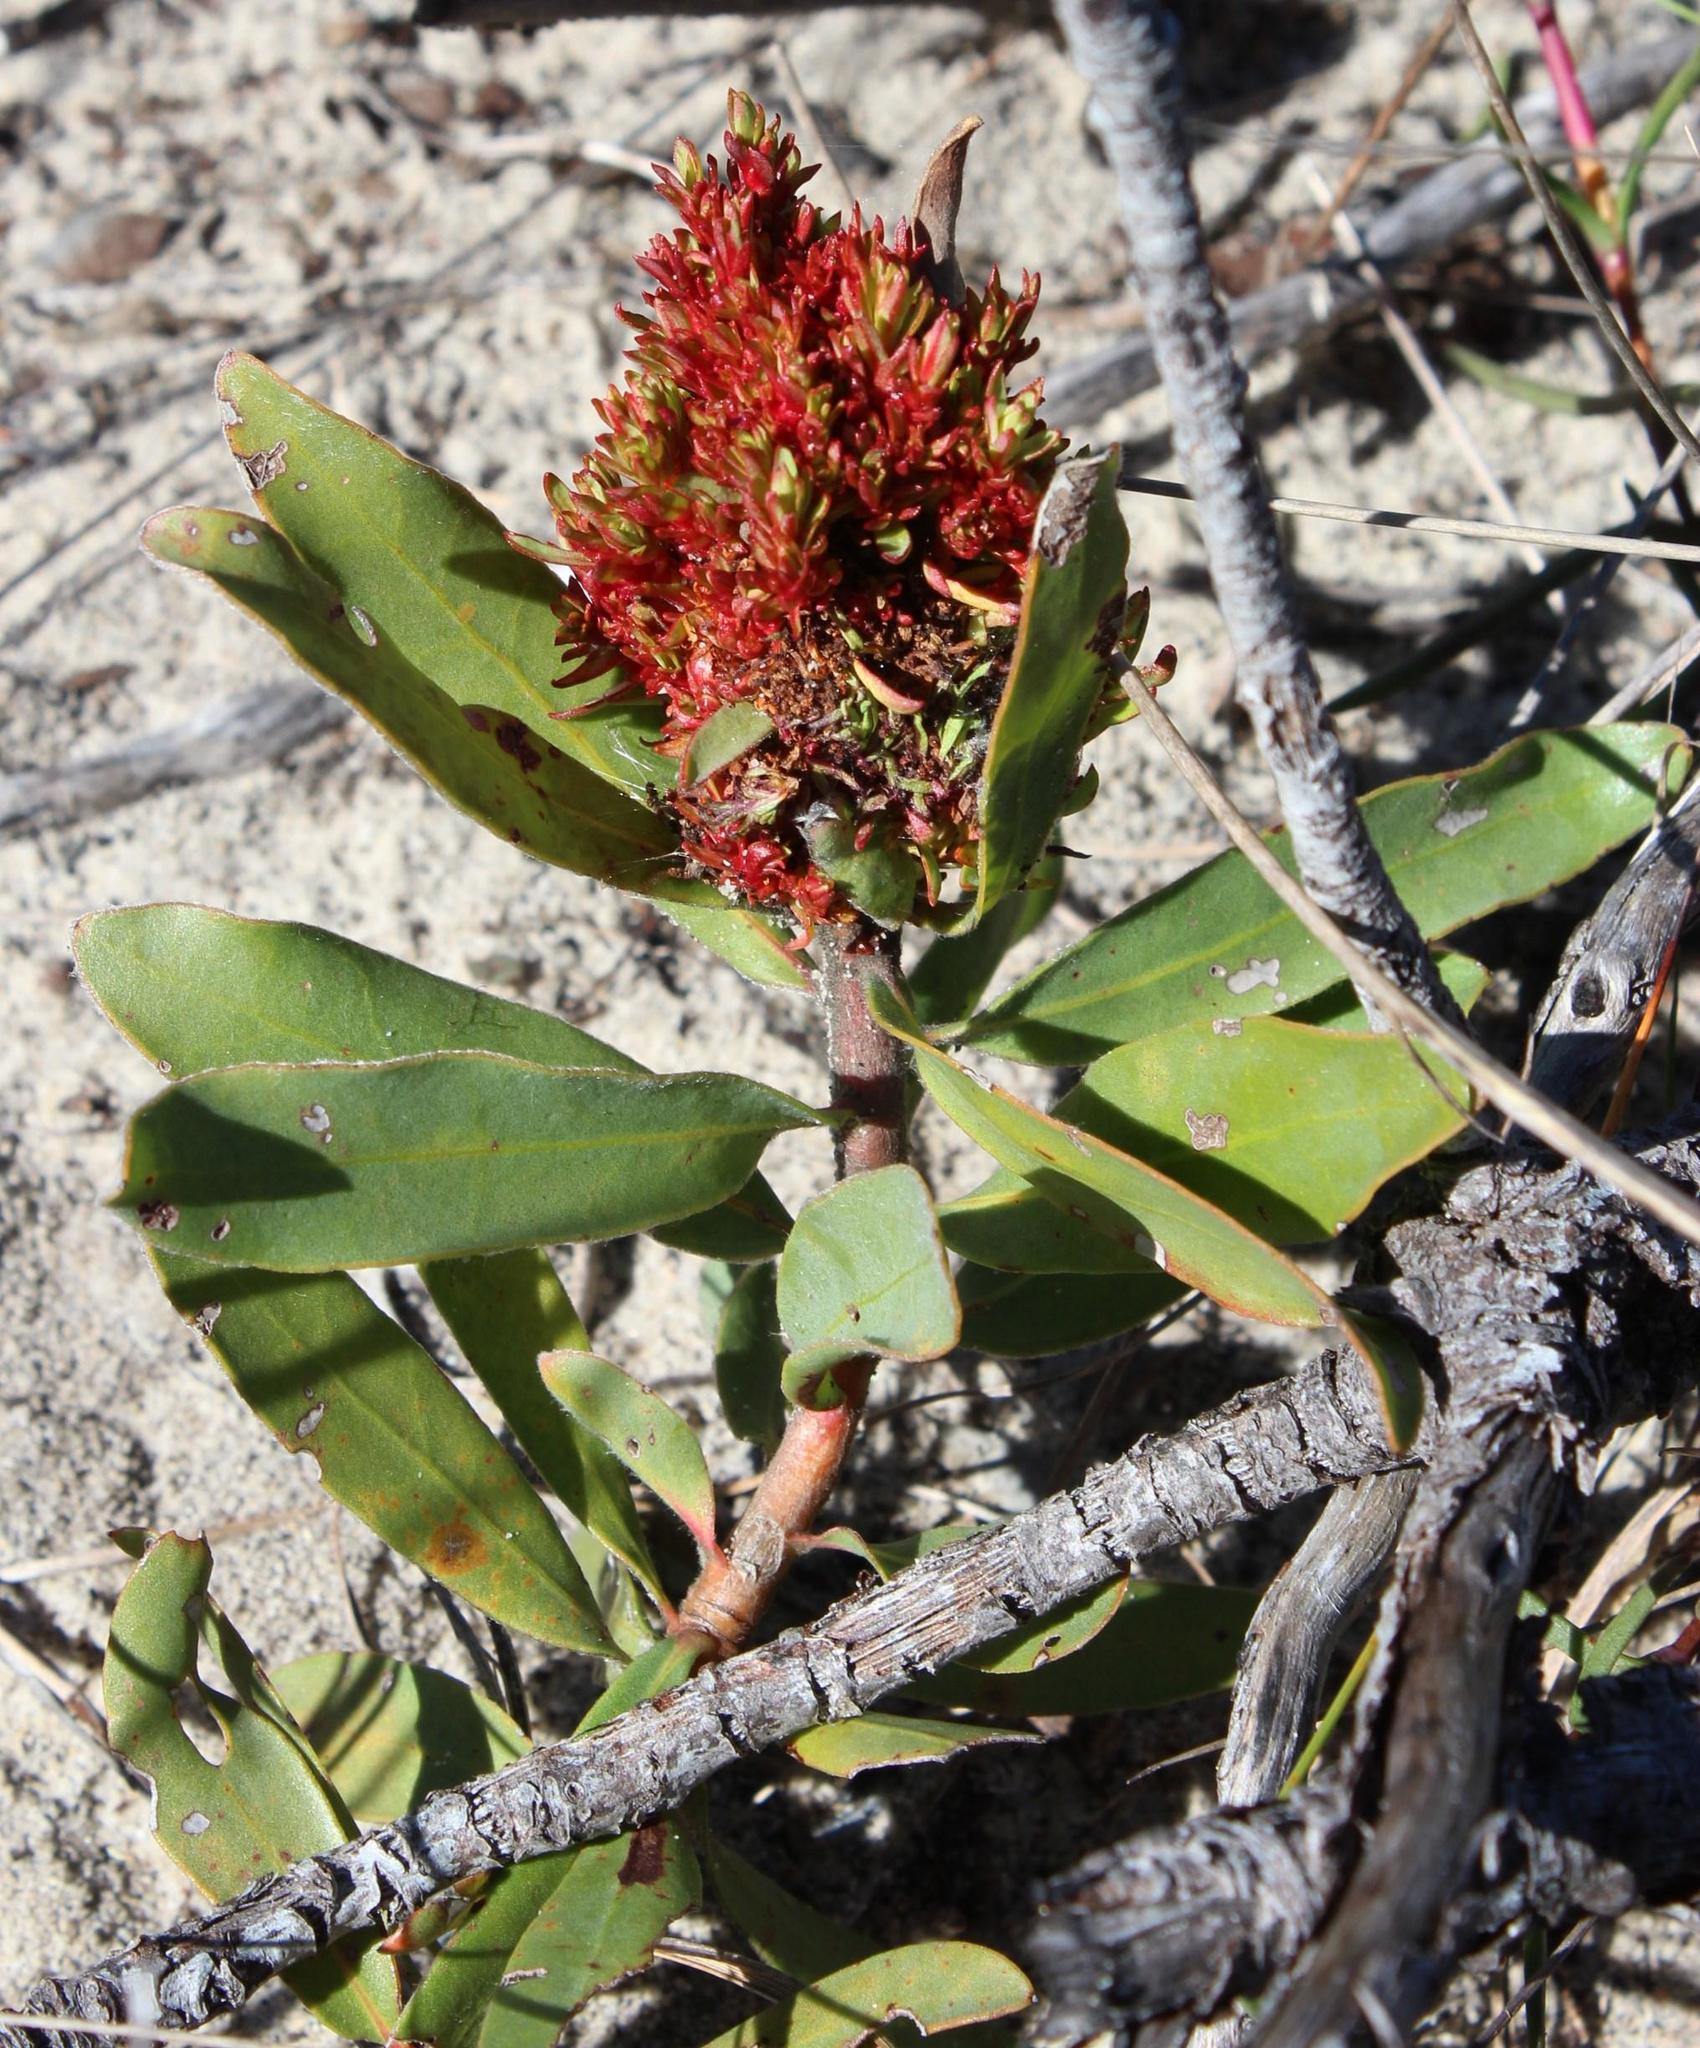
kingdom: Bacteria
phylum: Firmicutes
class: Bacilli
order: Acholeplasmatales
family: Acholeplasmataceae
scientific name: Acholeplasmataceae
